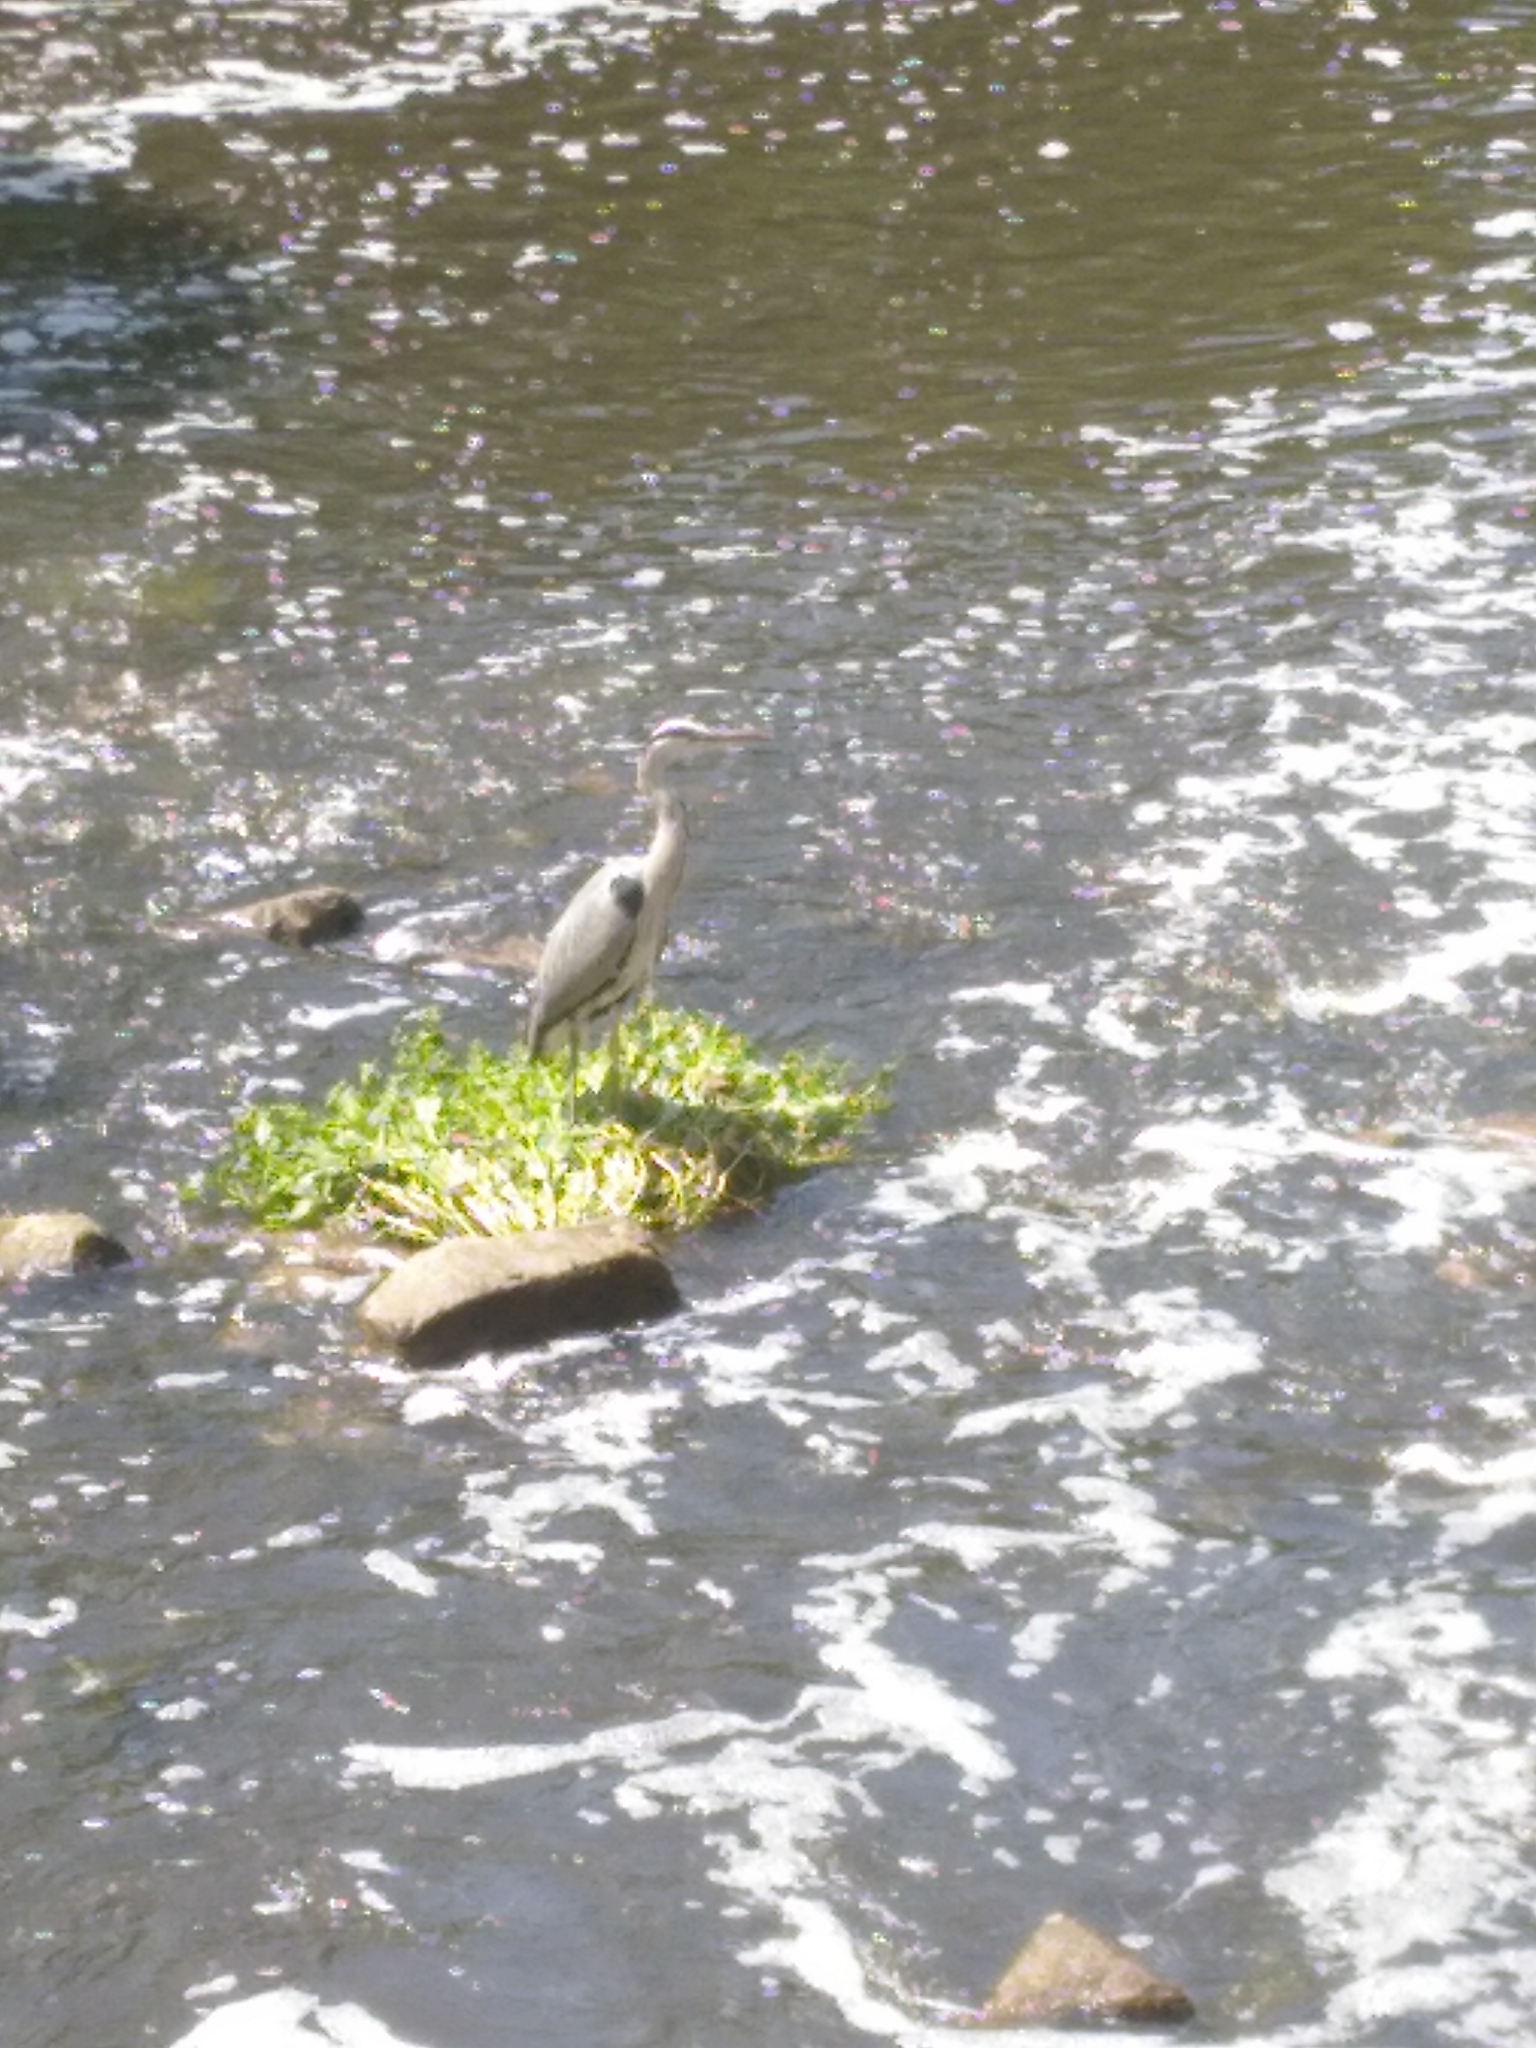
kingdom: Animalia
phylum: Chordata
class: Aves
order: Pelecaniformes
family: Ardeidae
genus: Ardea
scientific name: Ardea cinerea
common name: Grey heron
